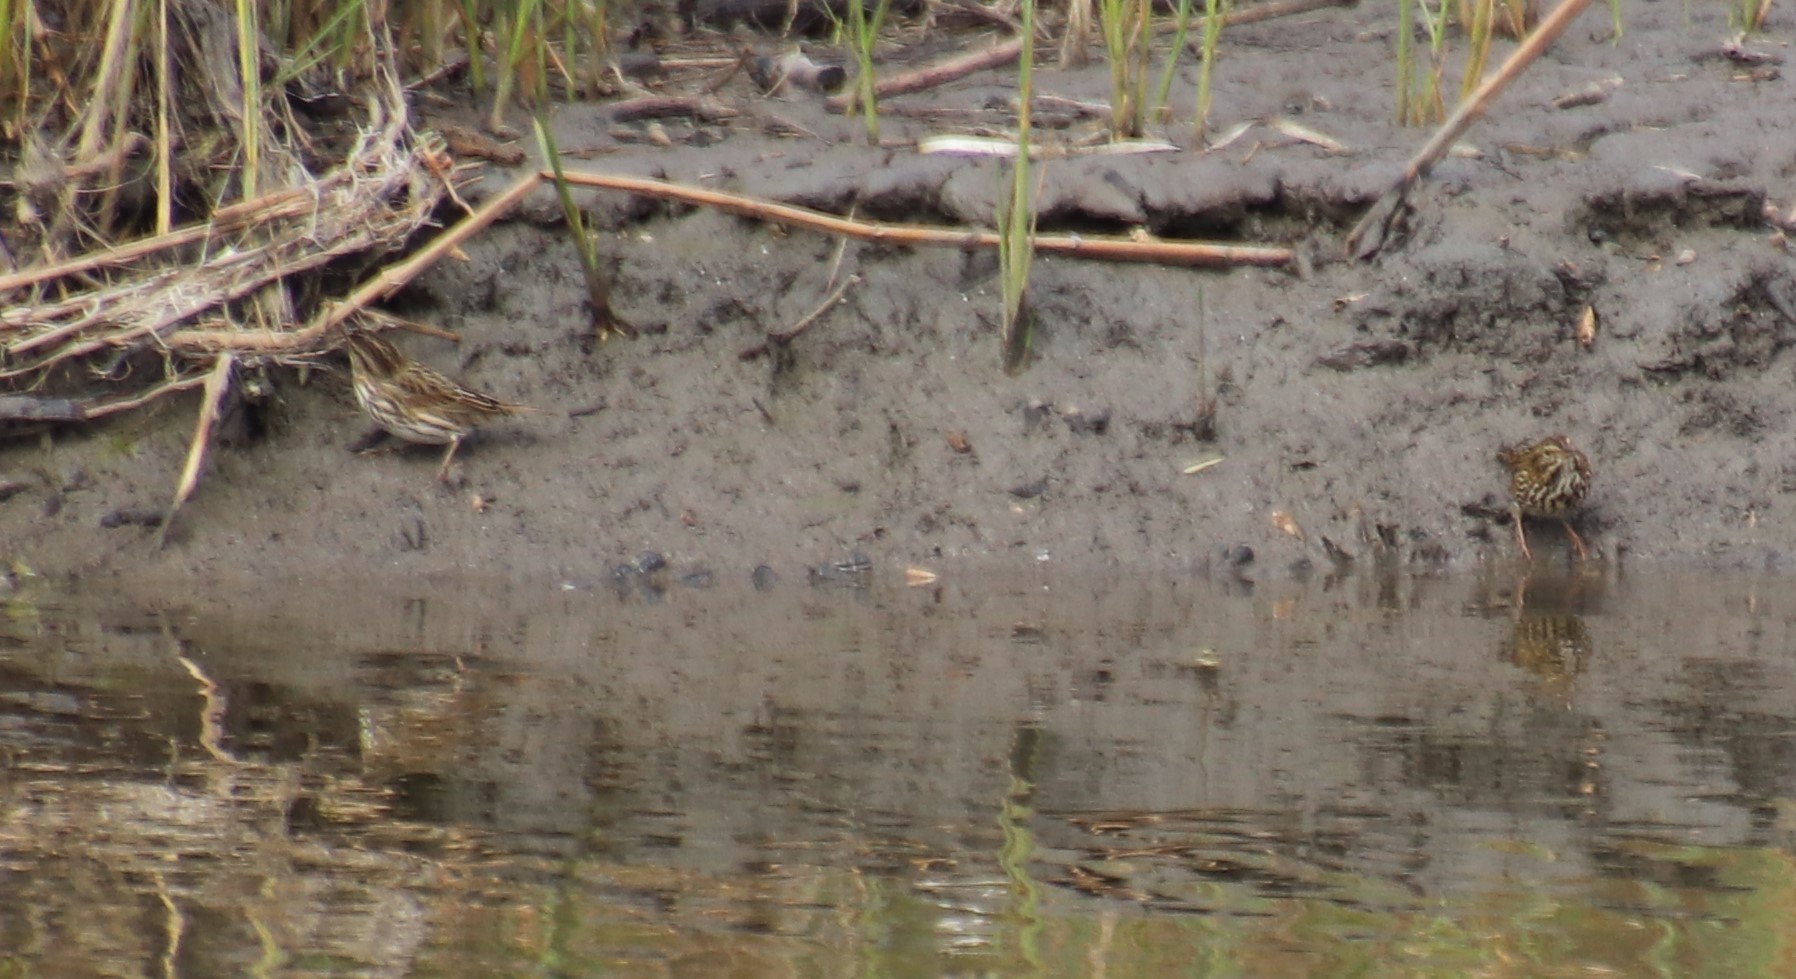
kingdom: Animalia
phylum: Chordata
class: Aves
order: Passeriformes
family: Passerellidae
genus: Passerculus
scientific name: Passerculus sandwichensis
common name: Savannah sparrow
